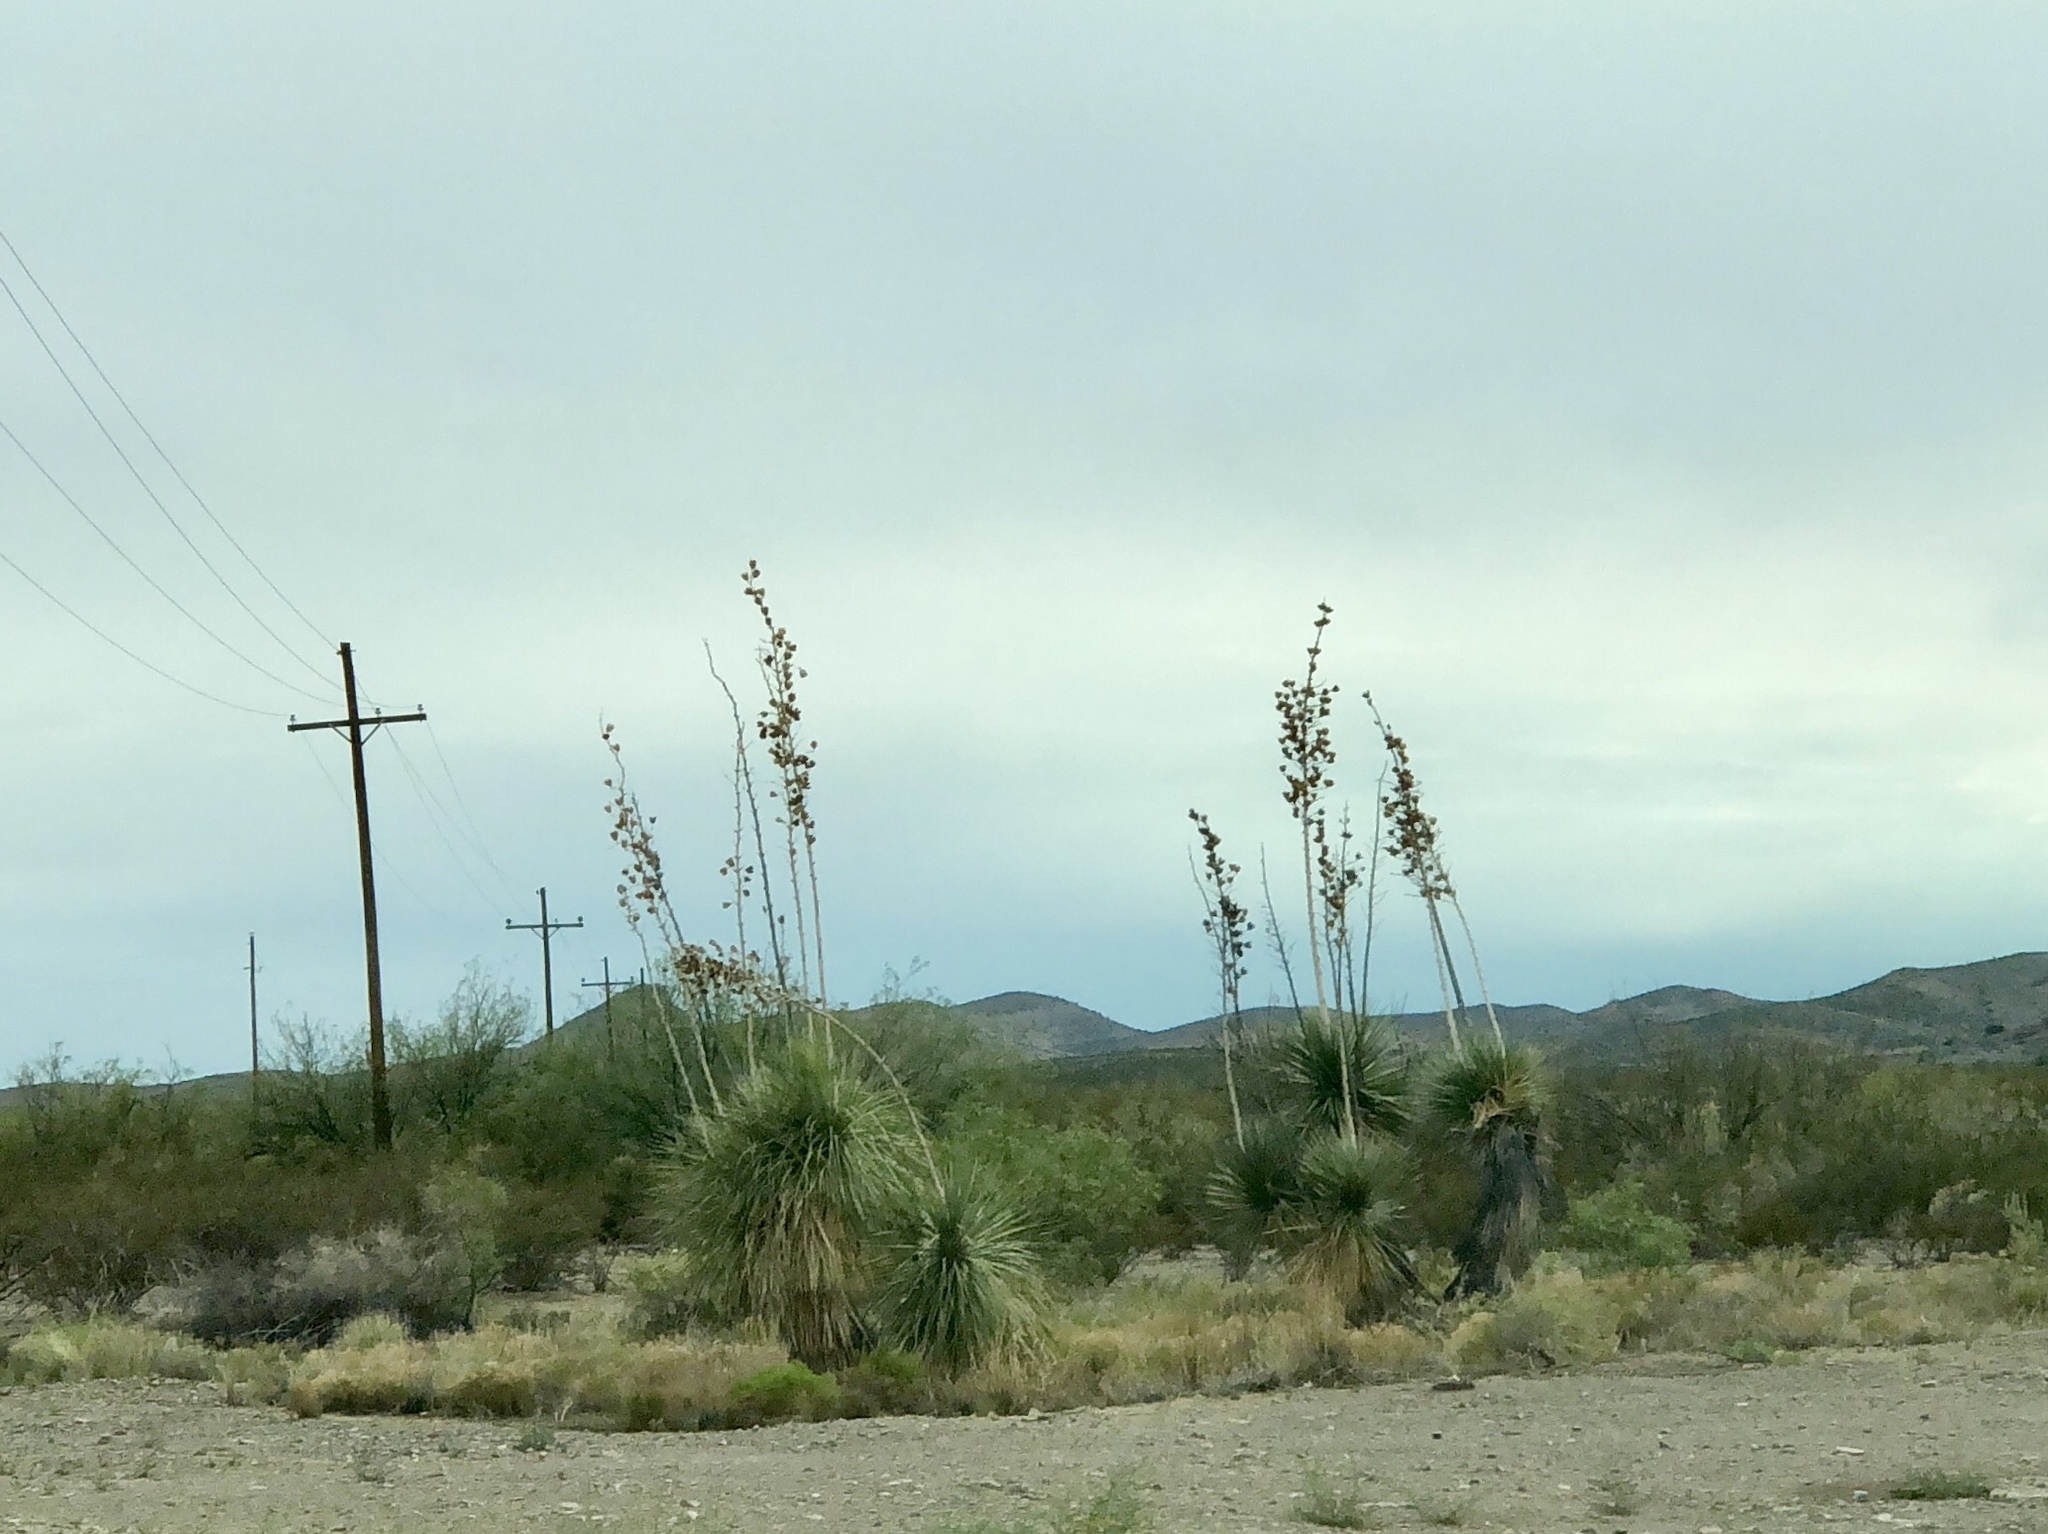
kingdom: Plantae
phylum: Tracheophyta
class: Liliopsida
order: Asparagales
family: Asparagaceae
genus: Yucca
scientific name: Yucca elata
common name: Palmella
